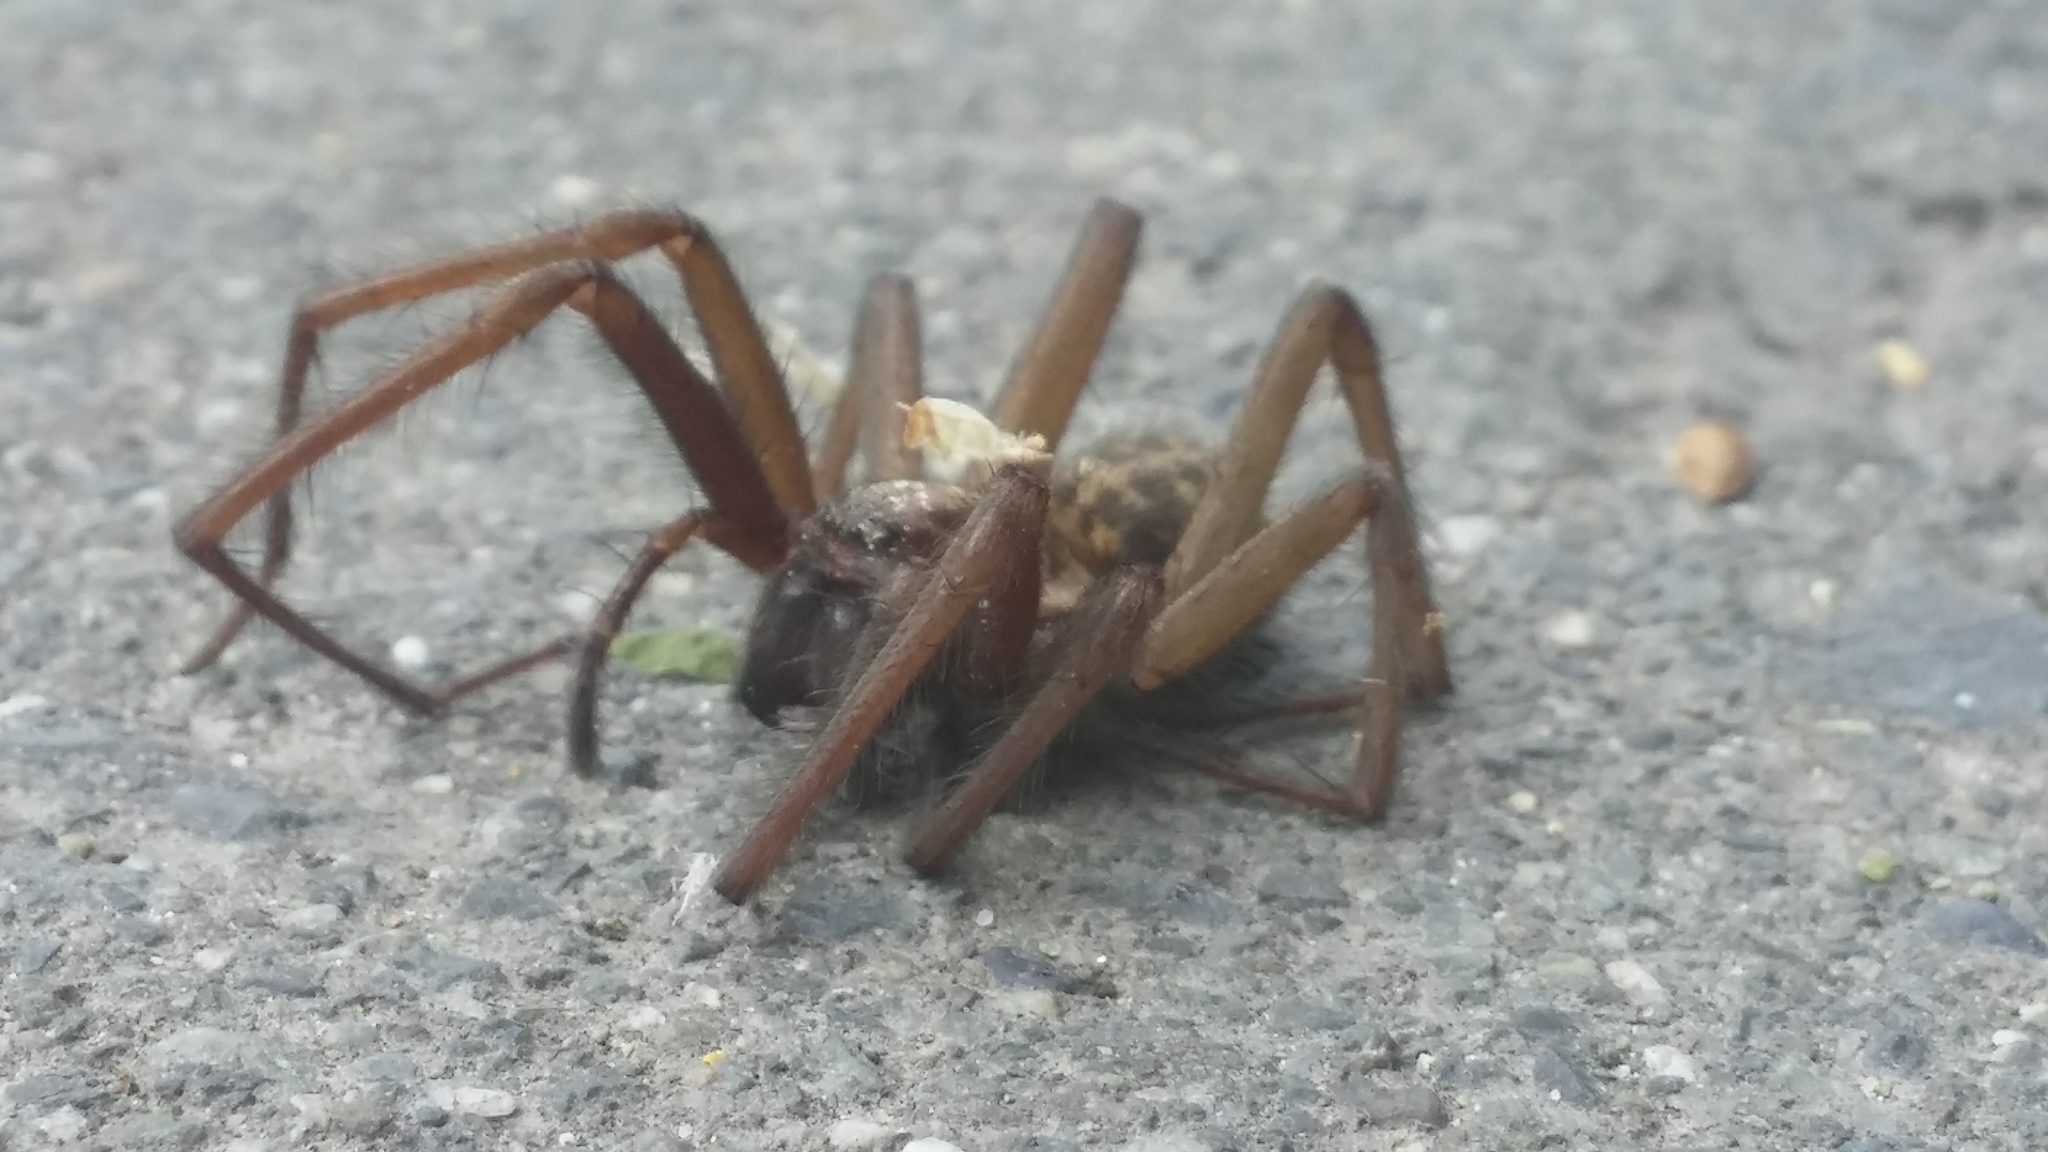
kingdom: Animalia
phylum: Arthropoda
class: Arachnida
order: Araneae
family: Agelenidae
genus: Eratigena
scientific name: Eratigena duellica
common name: Giant house spider
